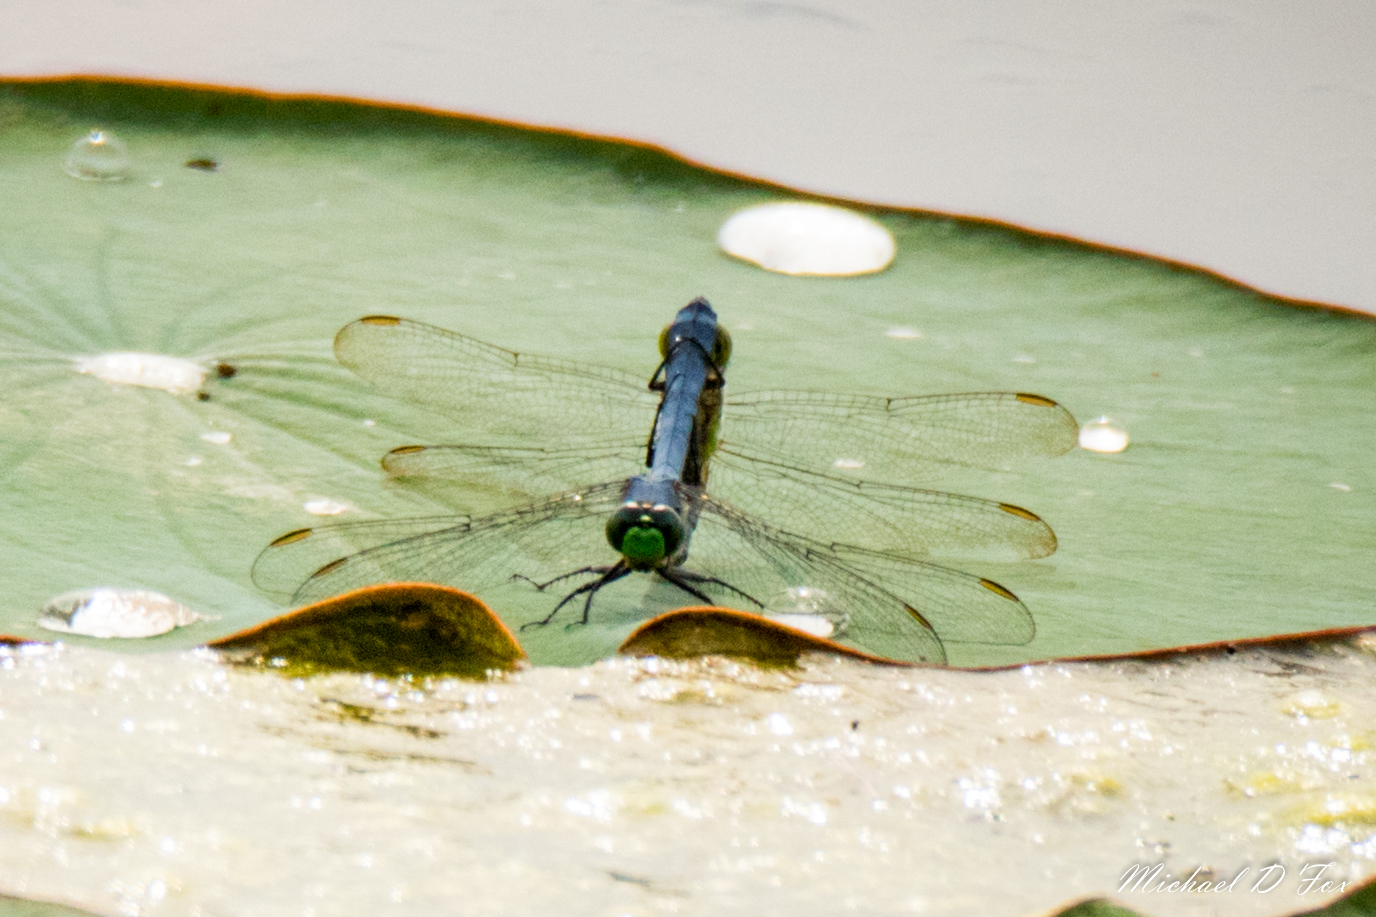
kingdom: Animalia
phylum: Arthropoda
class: Insecta
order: Odonata
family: Libellulidae
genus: Erythemis
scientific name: Erythemis simplicicollis
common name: Eastern pondhawk
